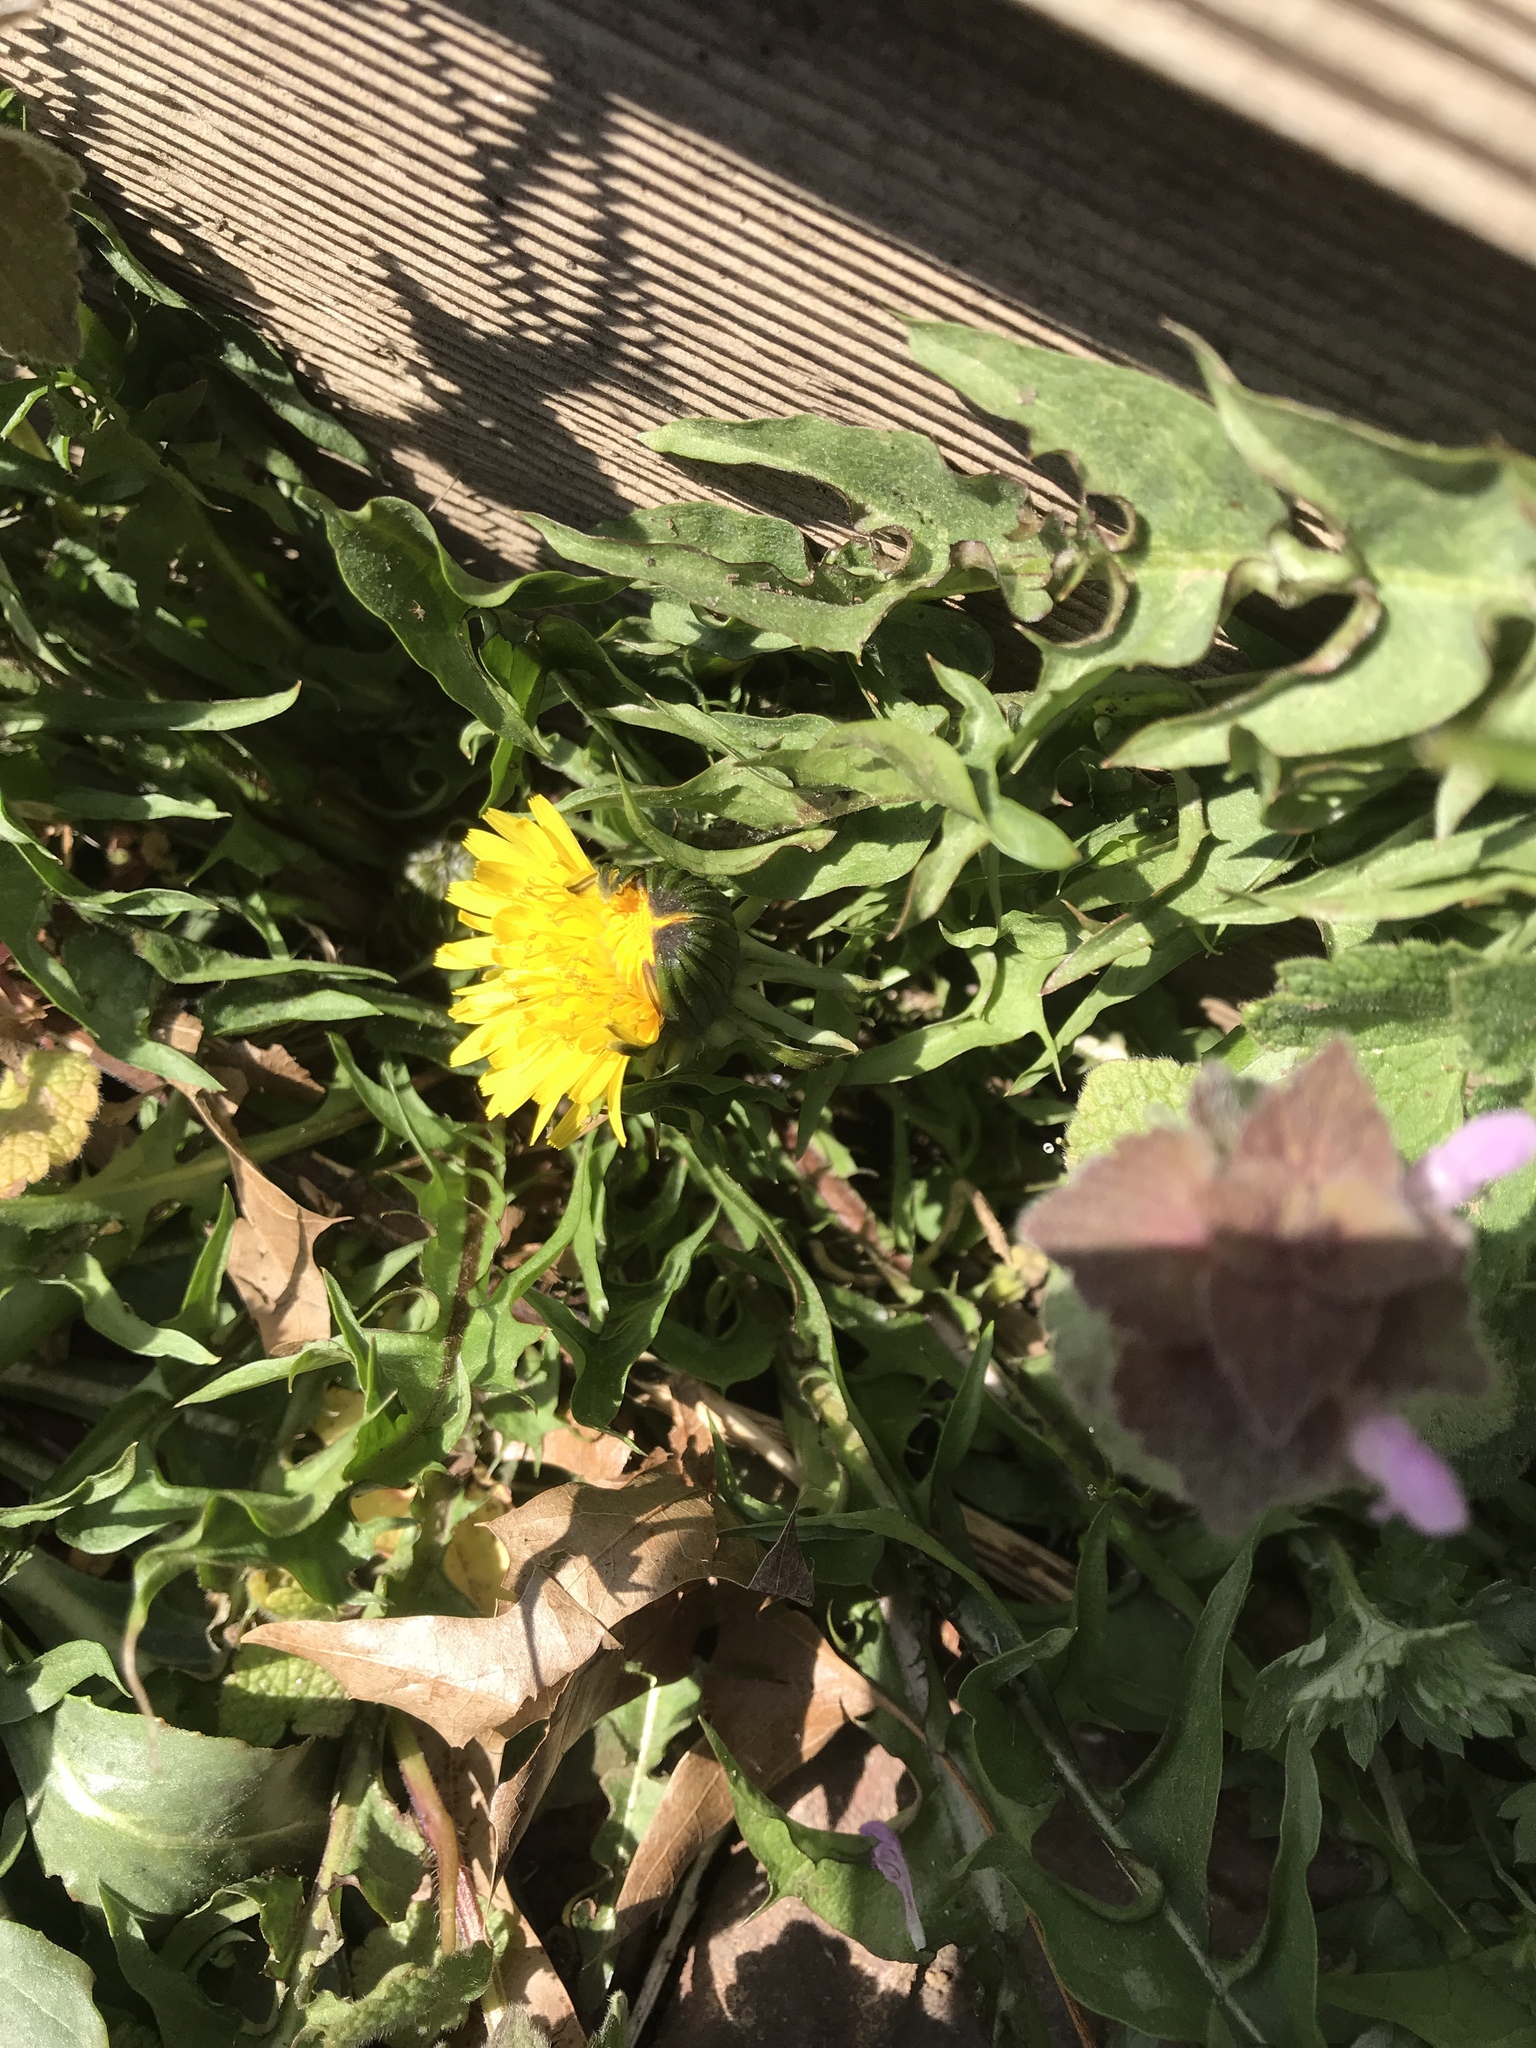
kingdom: Plantae
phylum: Tracheophyta
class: Magnoliopsida
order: Asterales
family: Asteraceae
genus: Taraxacum
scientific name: Taraxacum officinale
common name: Common dandelion
